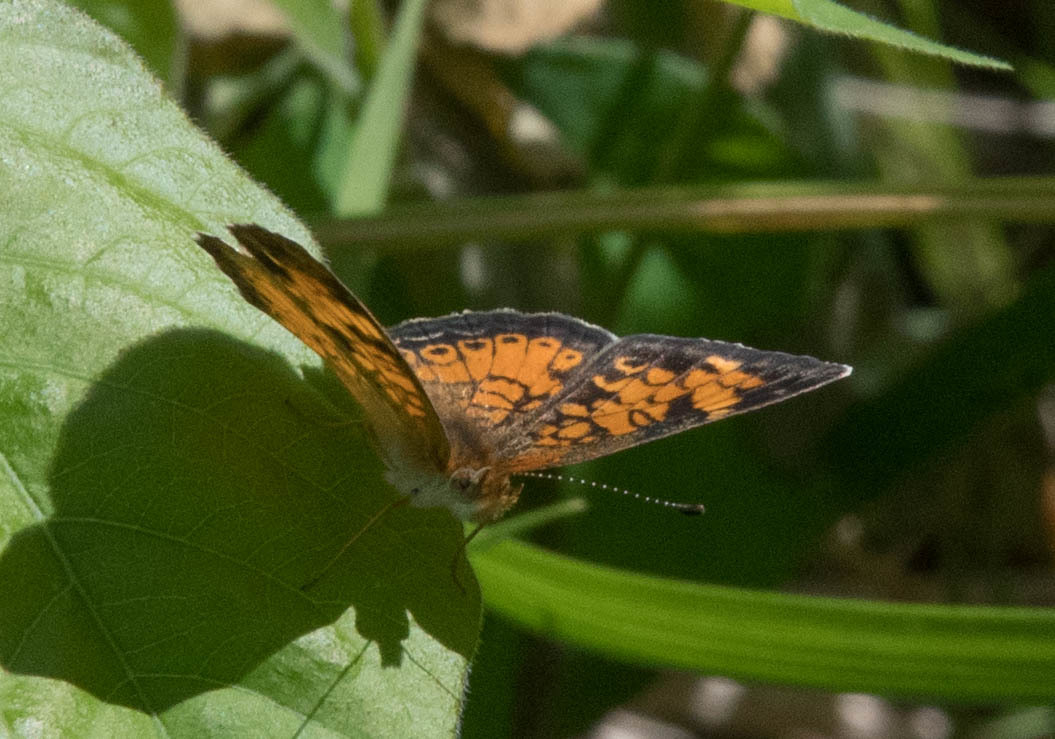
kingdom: Animalia
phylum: Arthropoda
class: Insecta
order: Lepidoptera
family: Nymphalidae
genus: Phyciodes
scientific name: Phyciodes tharos
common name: Pearl crescent
